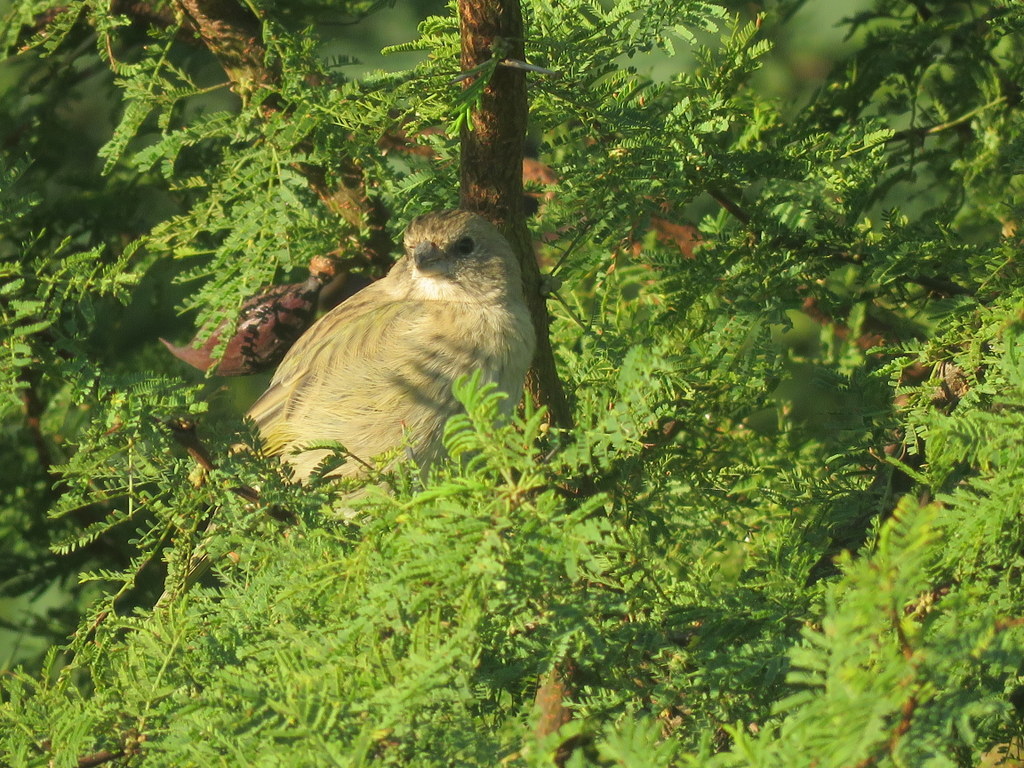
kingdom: Animalia
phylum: Chordata
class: Aves
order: Passeriformes
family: Thraupidae
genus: Sicalis
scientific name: Sicalis flaveola
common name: Saffron finch
